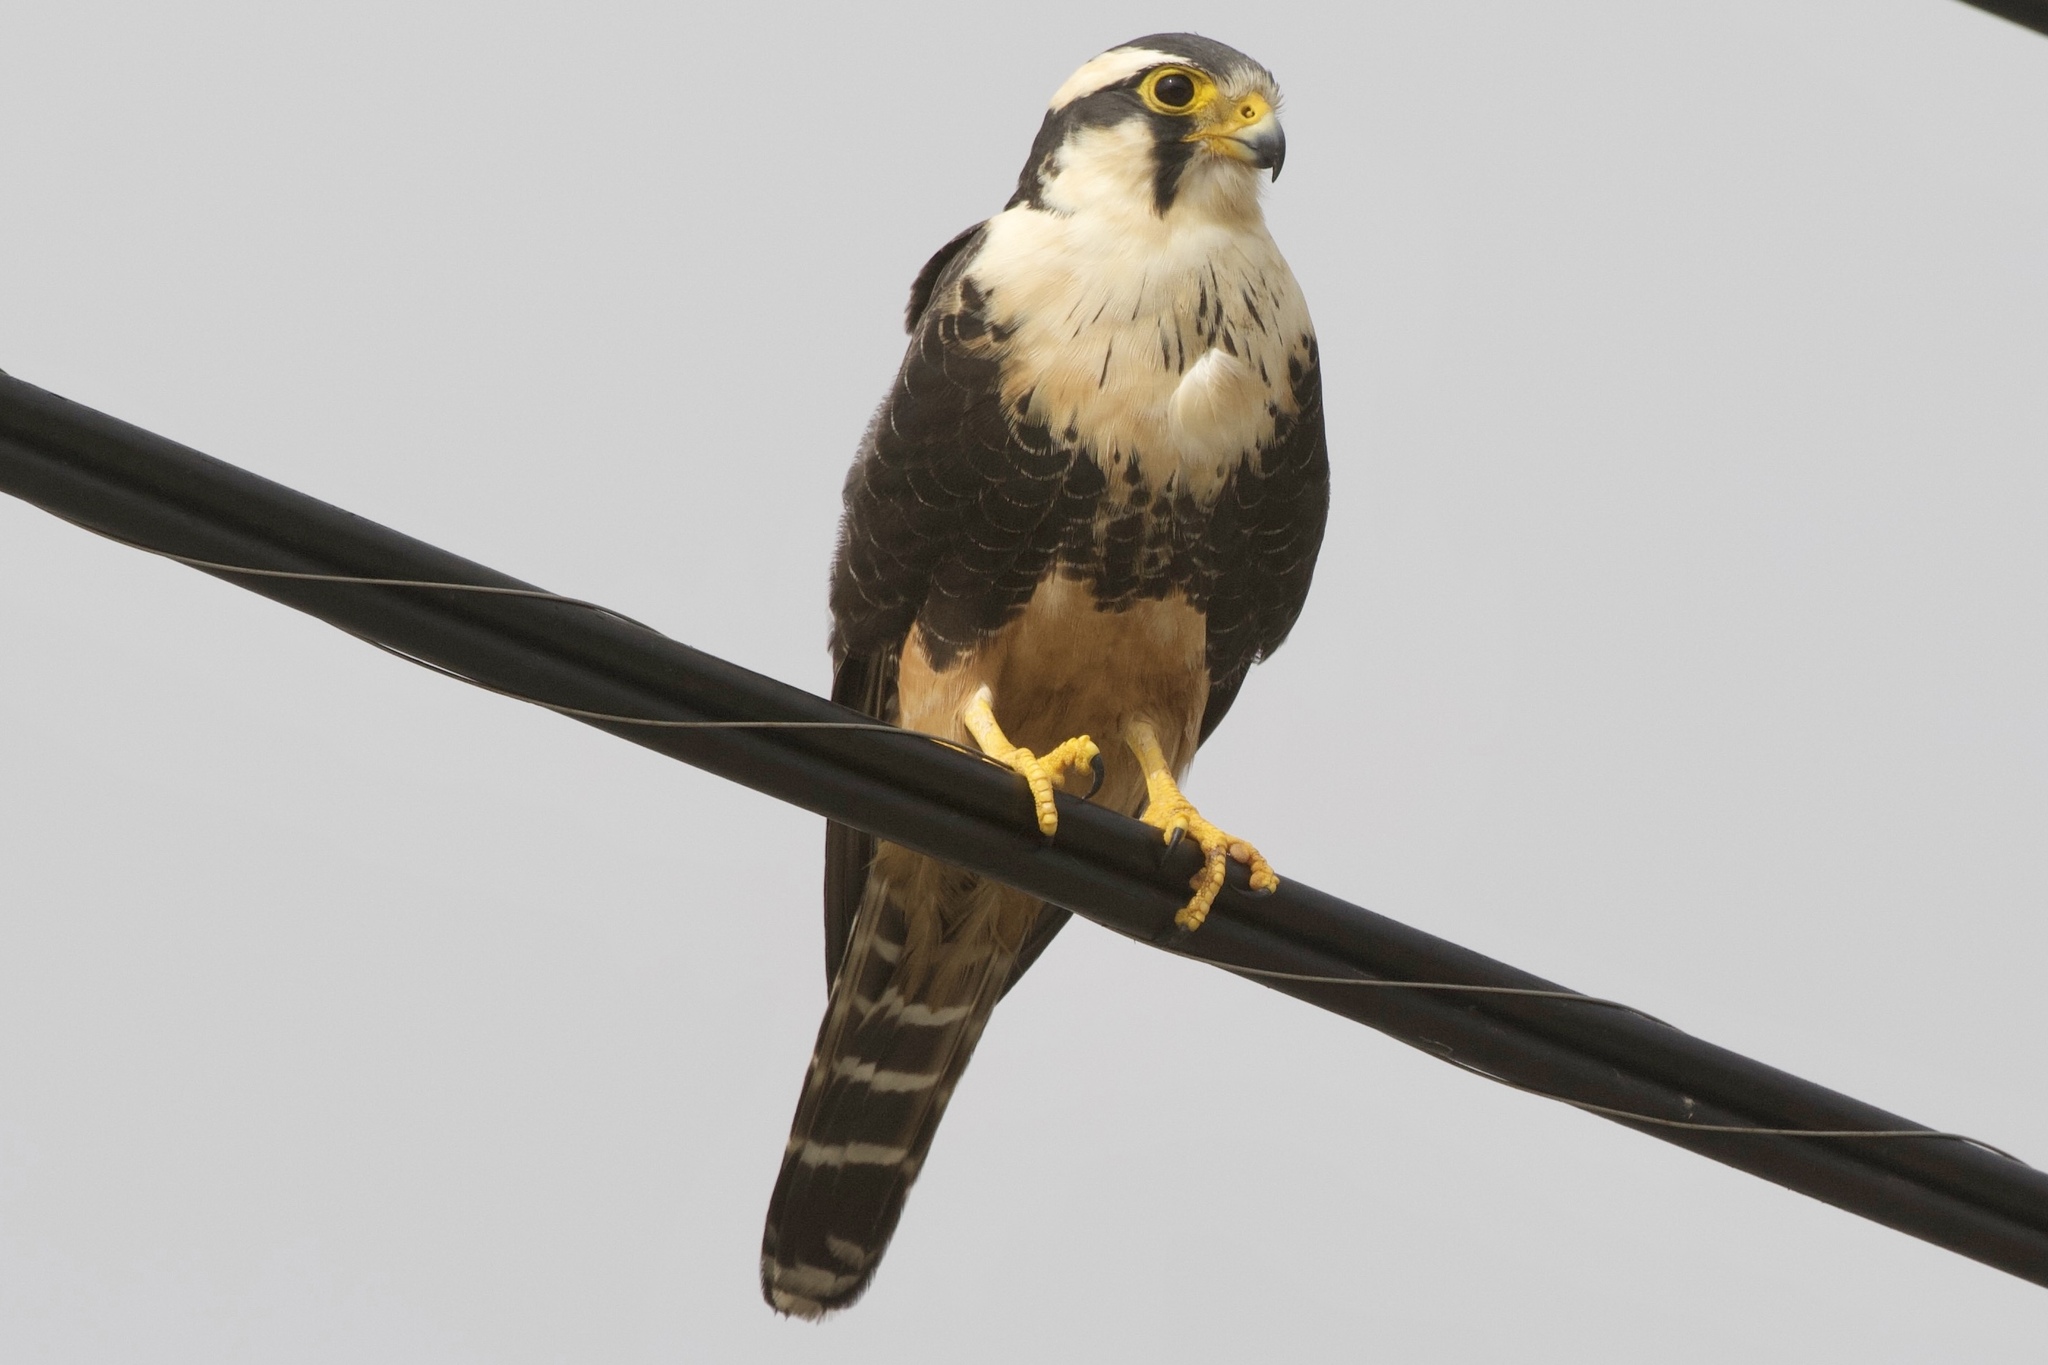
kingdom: Animalia
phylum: Chordata
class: Aves
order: Falconiformes
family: Falconidae
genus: Falco
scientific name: Falco femoralis
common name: Aplomado falcon
